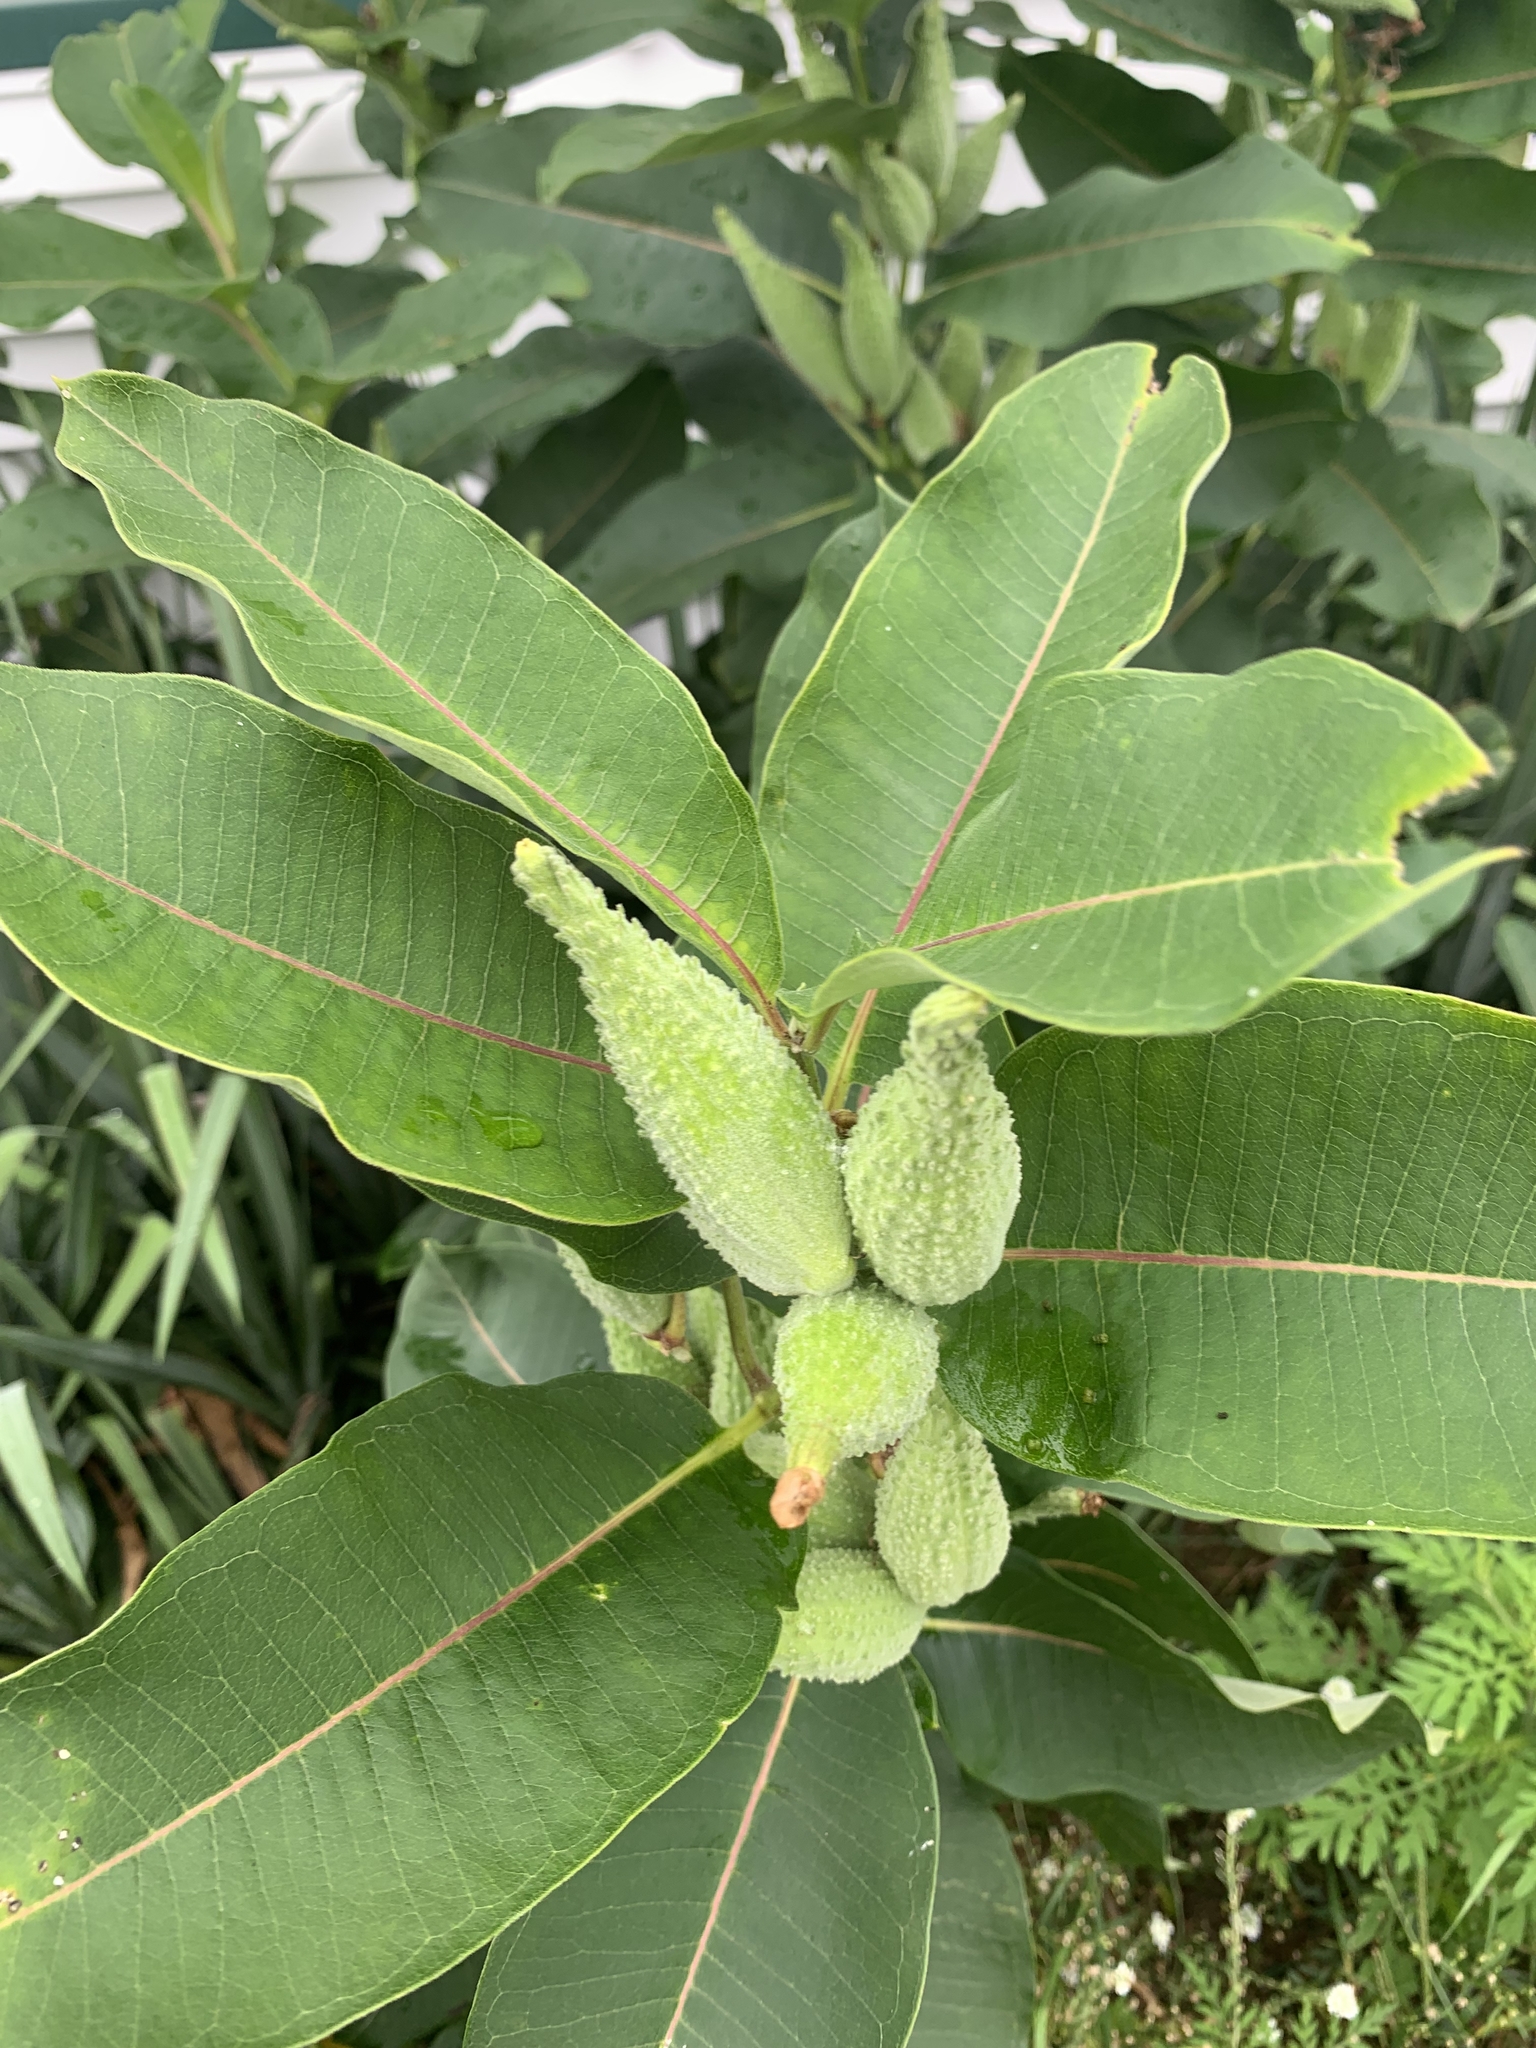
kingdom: Plantae
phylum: Tracheophyta
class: Magnoliopsida
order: Gentianales
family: Apocynaceae
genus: Asclepias
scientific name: Asclepias syriaca
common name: Common milkweed
